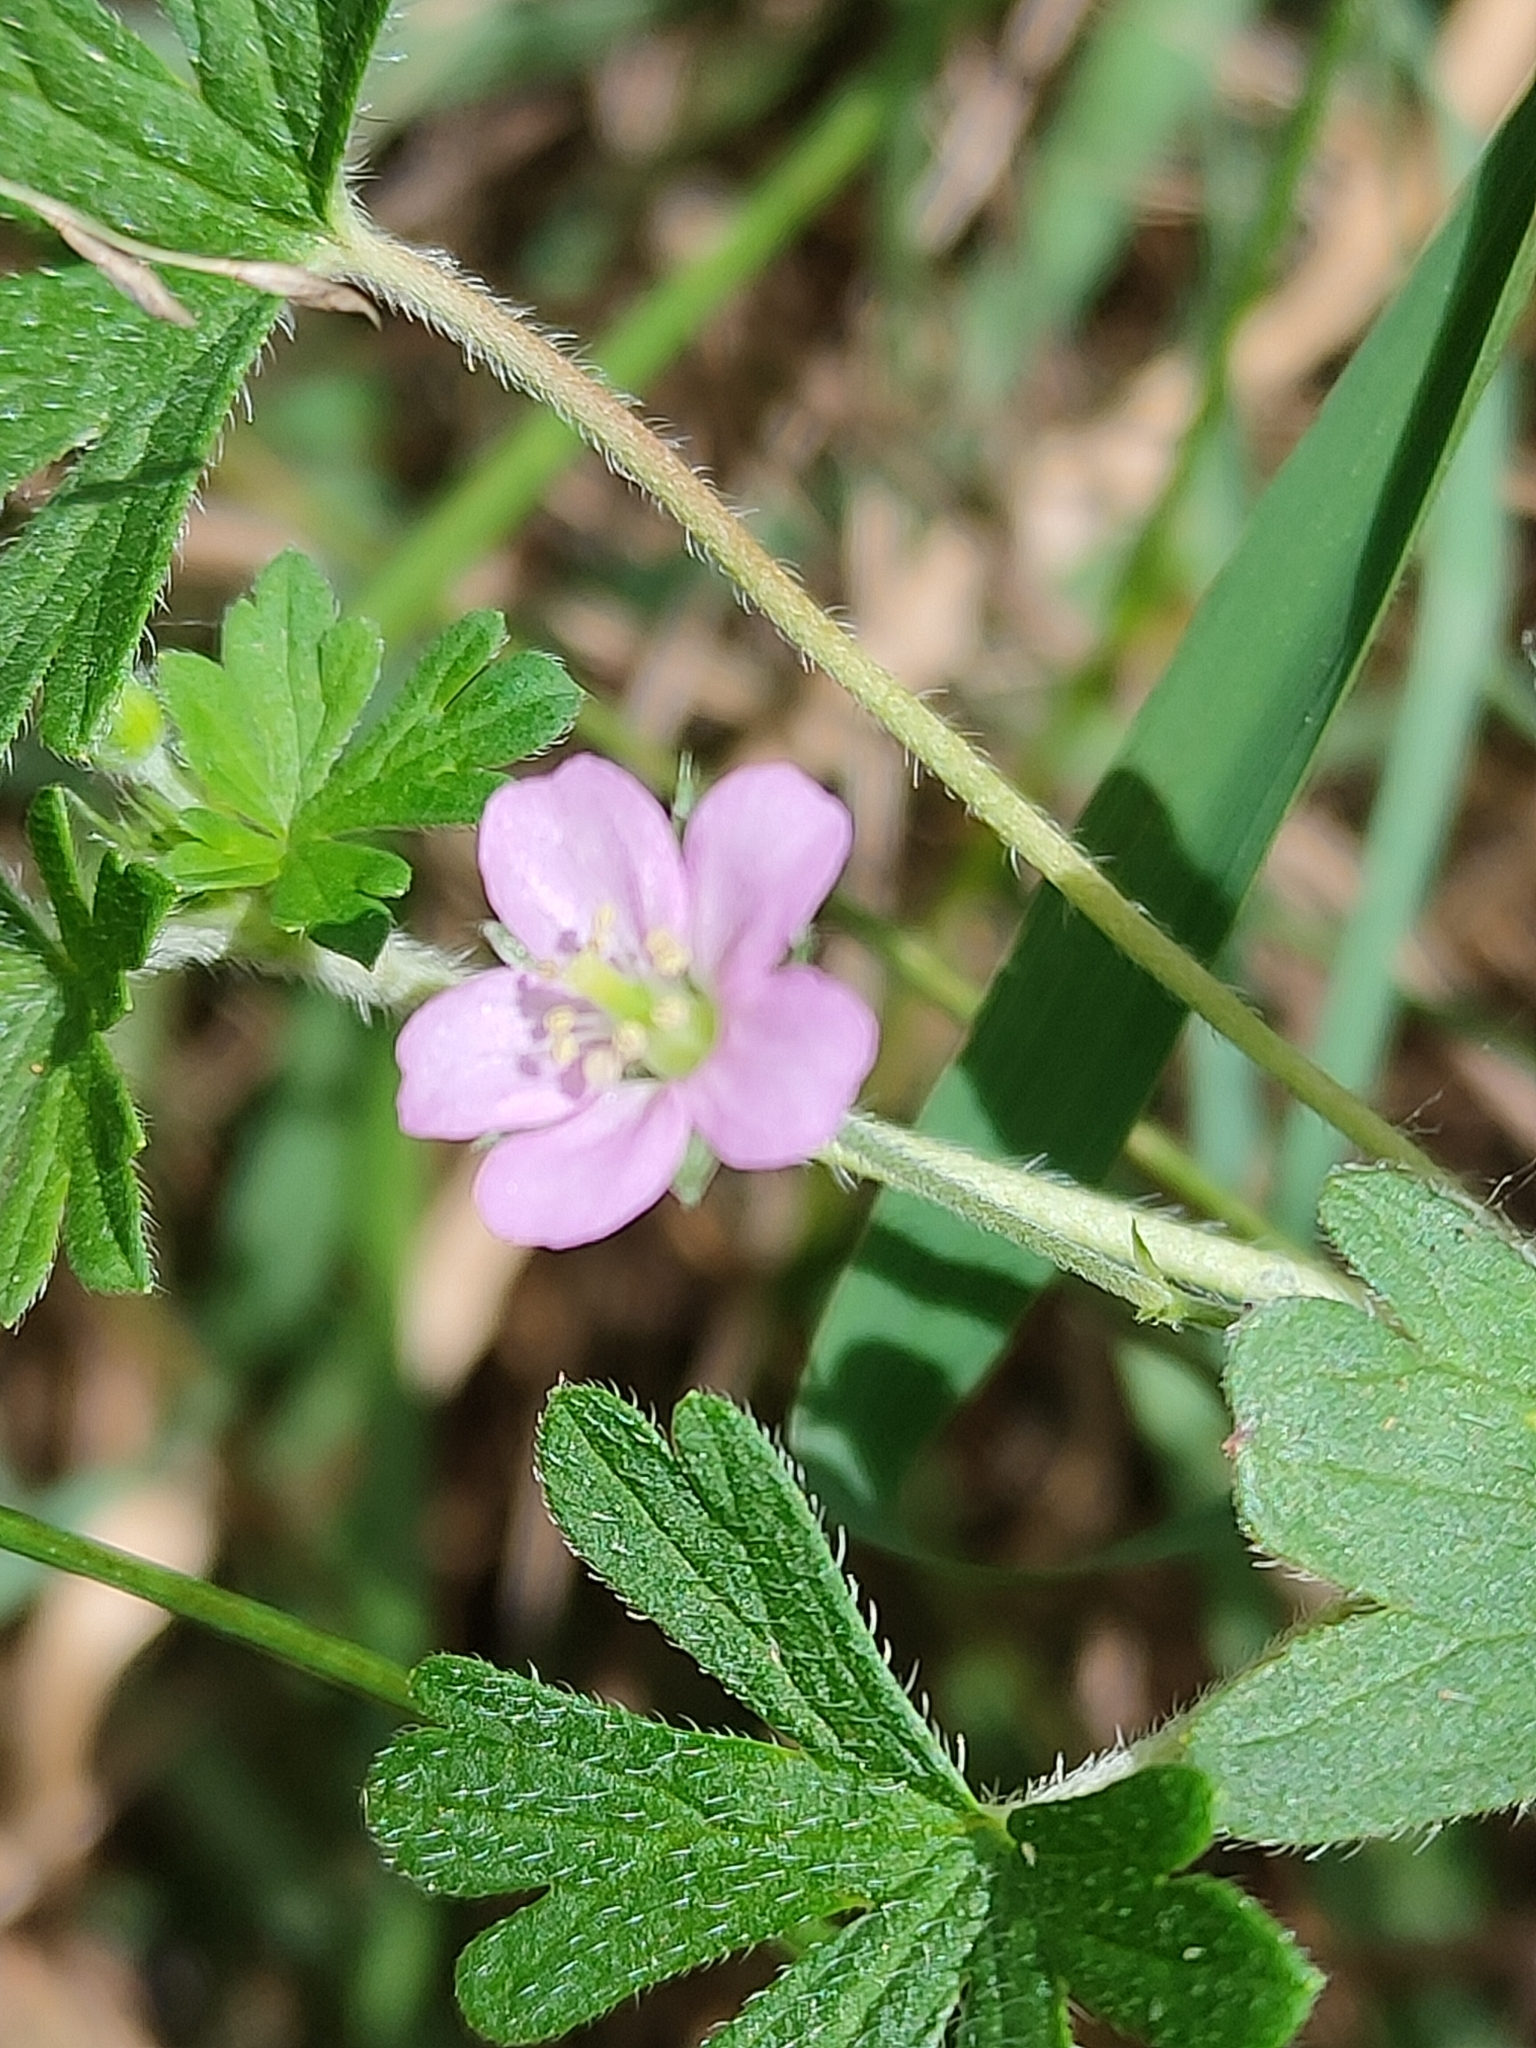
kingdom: Plantae
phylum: Tracheophyta
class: Magnoliopsida
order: Geraniales
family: Geraniaceae
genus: Geranium
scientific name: Geranium solanderi
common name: Solander's geranium
